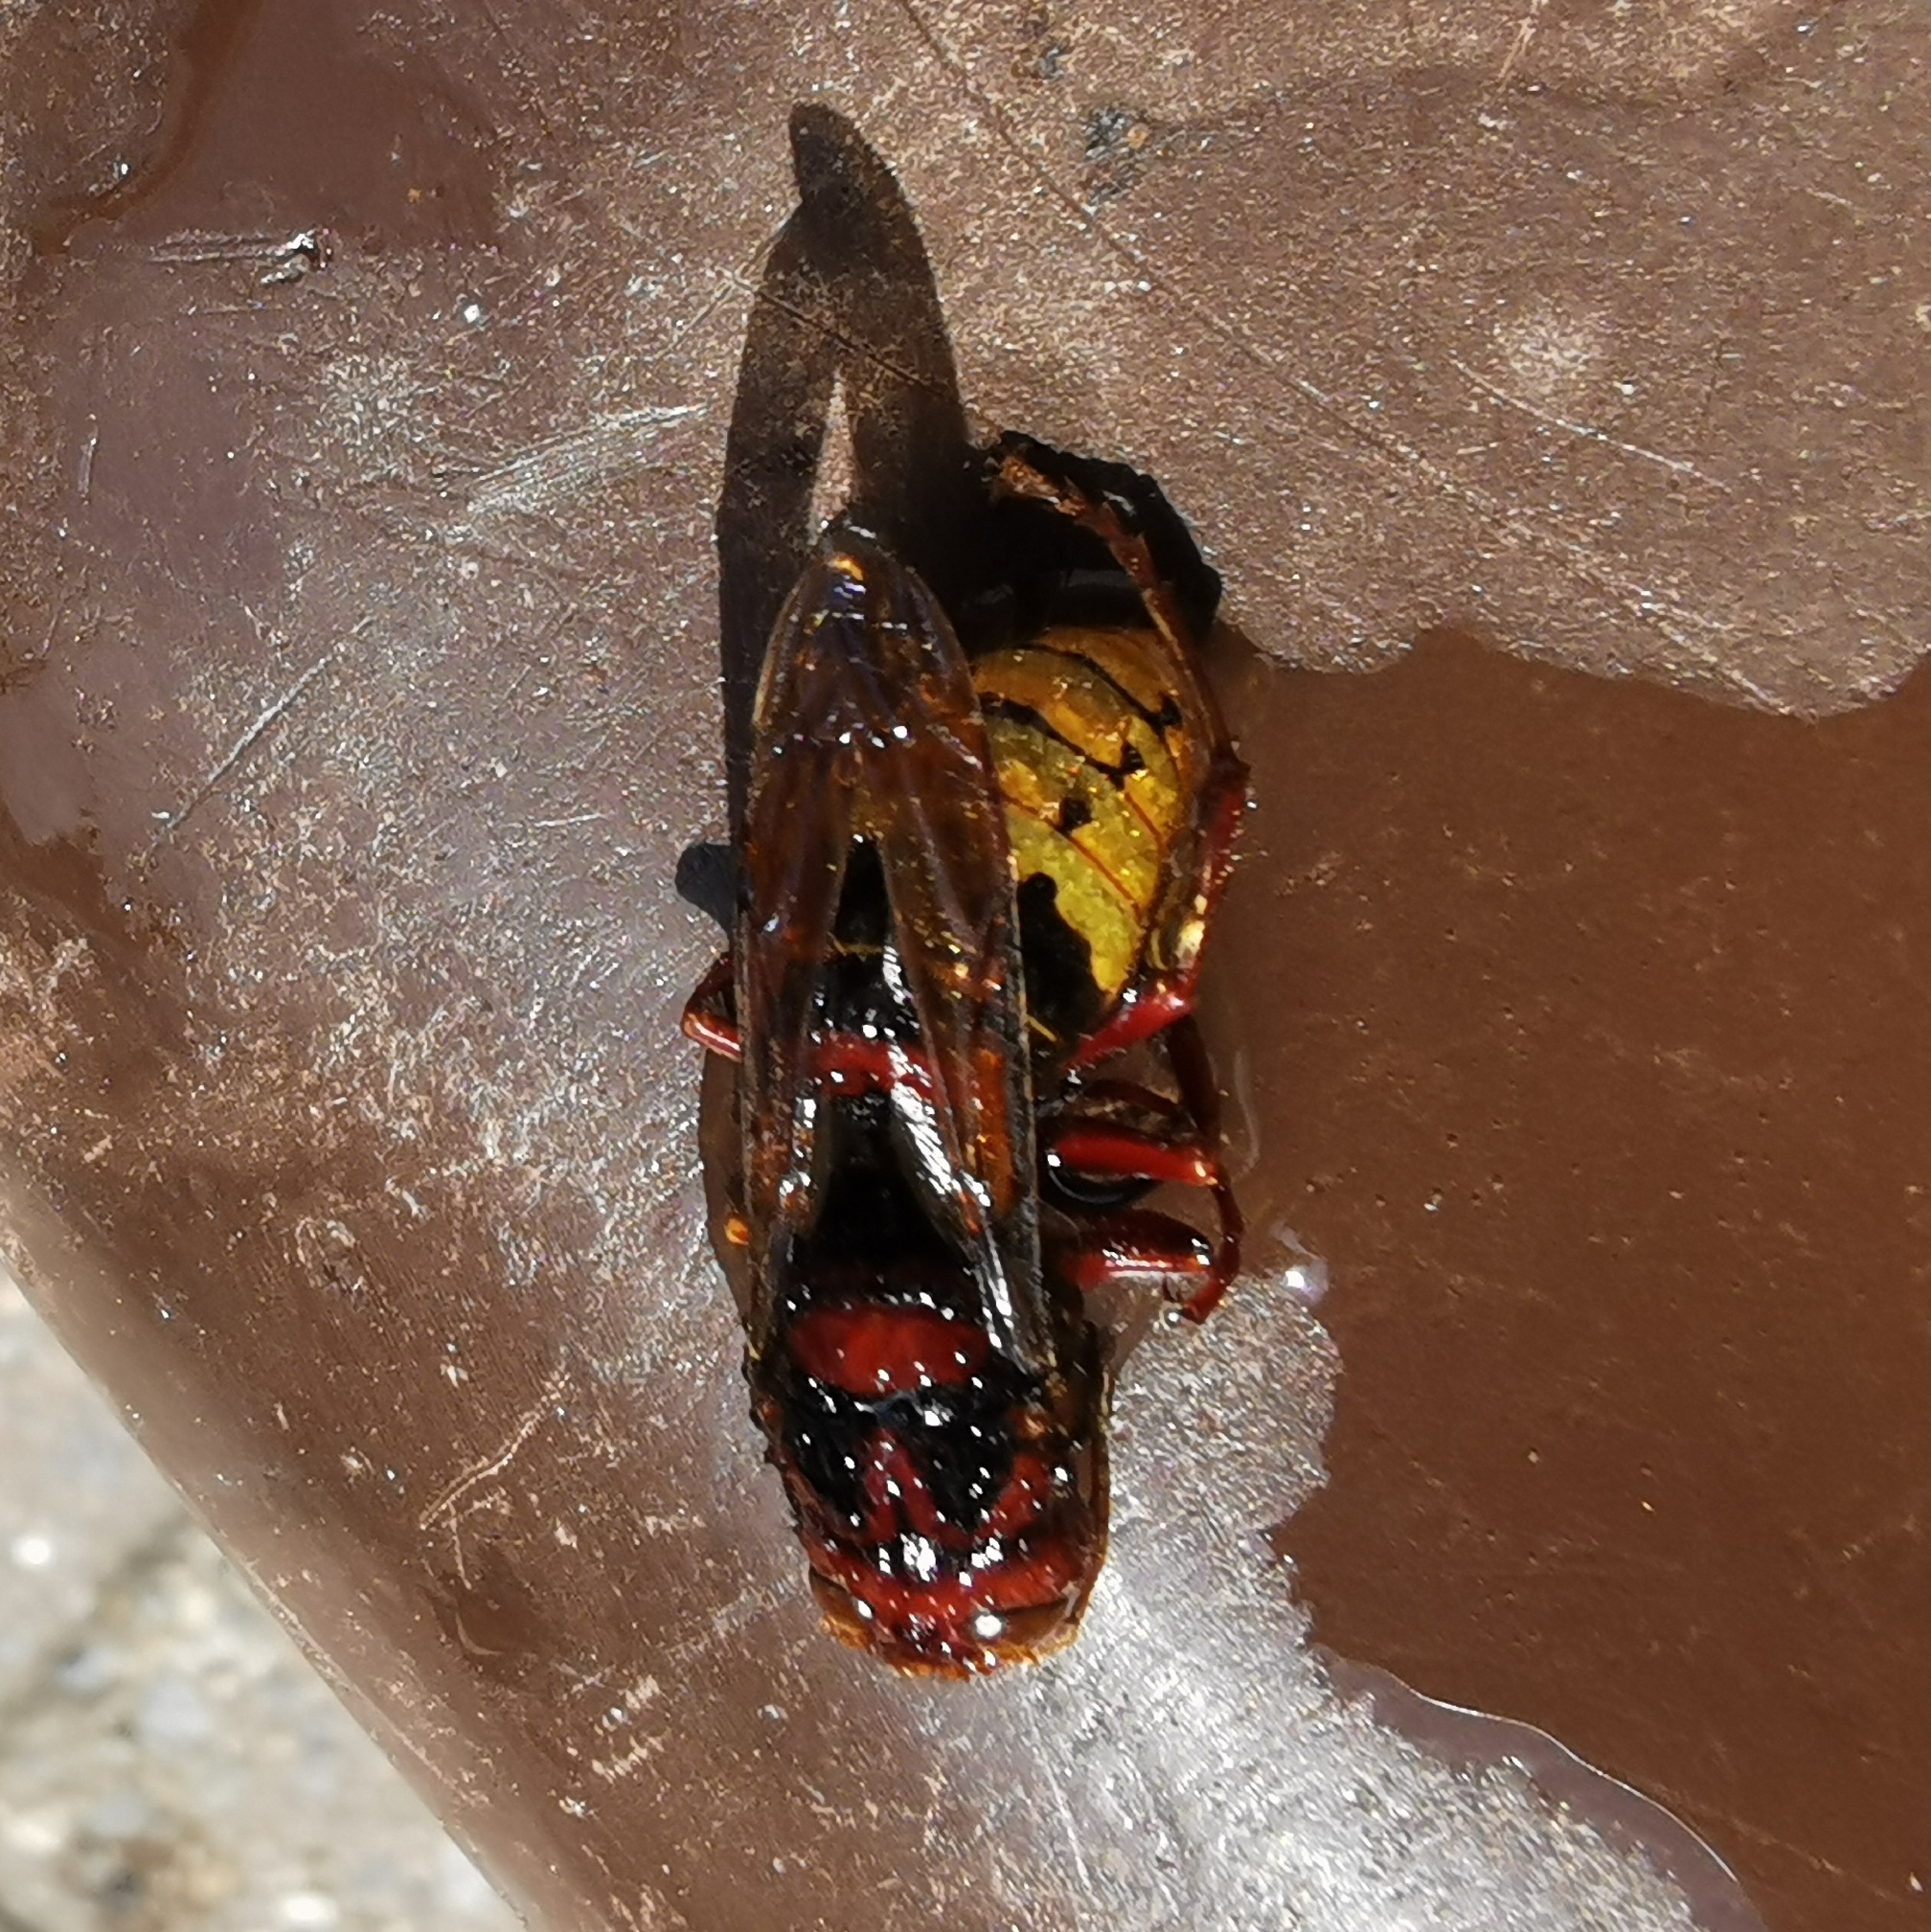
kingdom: Animalia
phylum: Arthropoda
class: Insecta
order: Hymenoptera
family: Vespidae
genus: Vespa
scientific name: Vespa crabro
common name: Hornet
